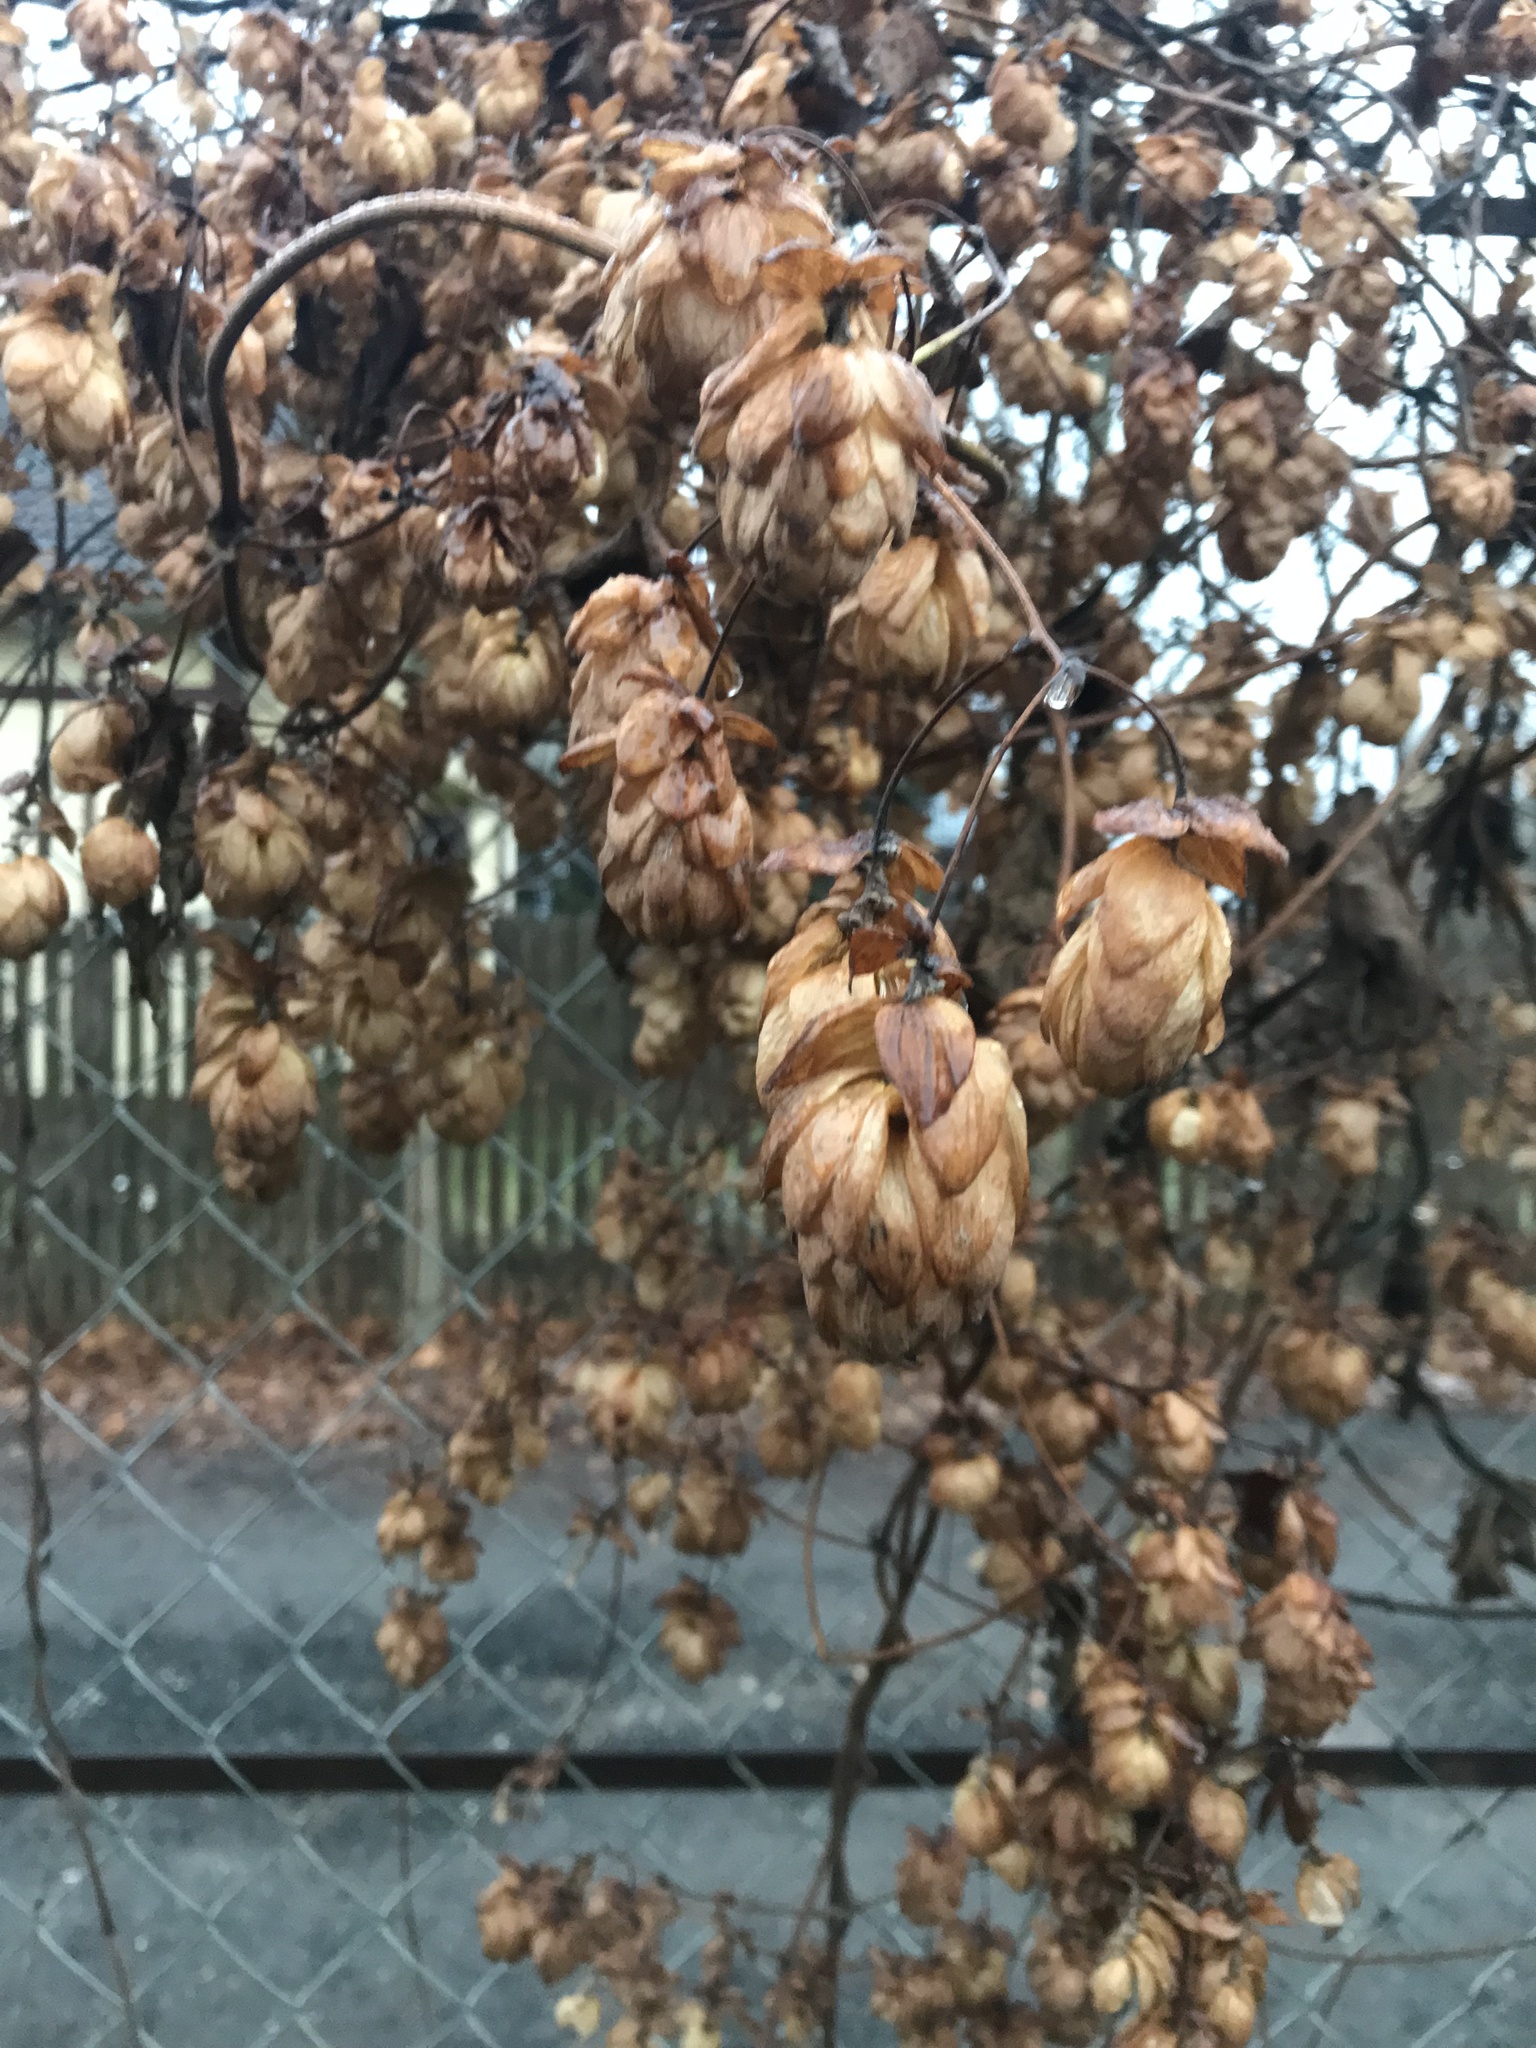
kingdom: Plantae
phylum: Tracheophyta
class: Magnoliopsida
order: Rosales
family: Cannabaceae
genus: Humulus
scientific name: Humulus lupulus
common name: Hop
